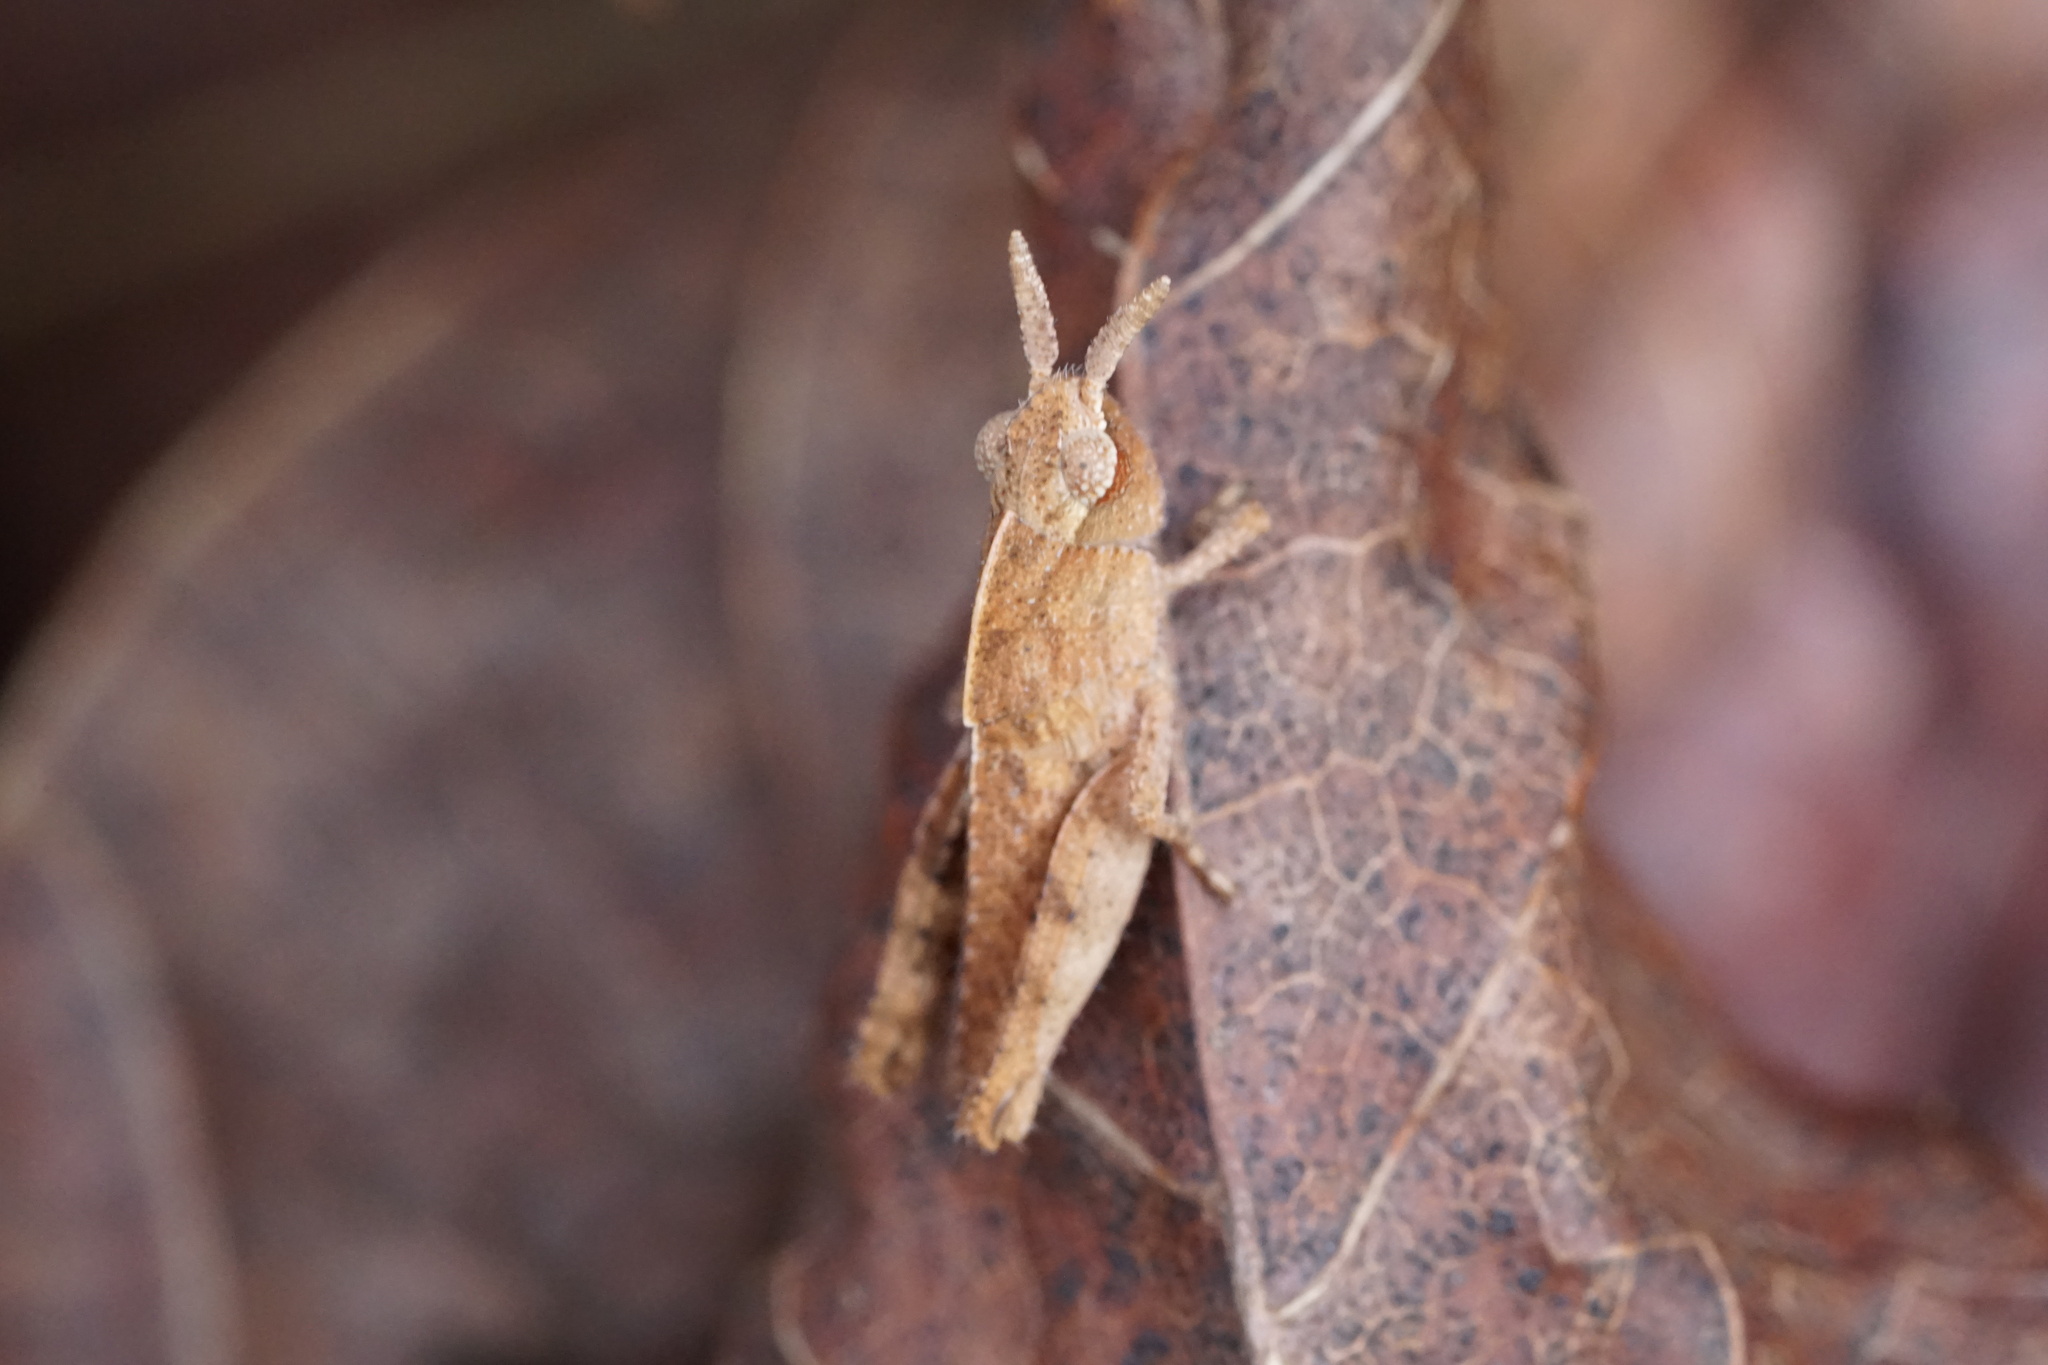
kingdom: Animalia
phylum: Arthropoda
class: Insecta
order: Orthoptera
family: Acrididae
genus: Chortophaga
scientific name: Chortophaga viridifasciata
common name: Green-striped grasshopper
